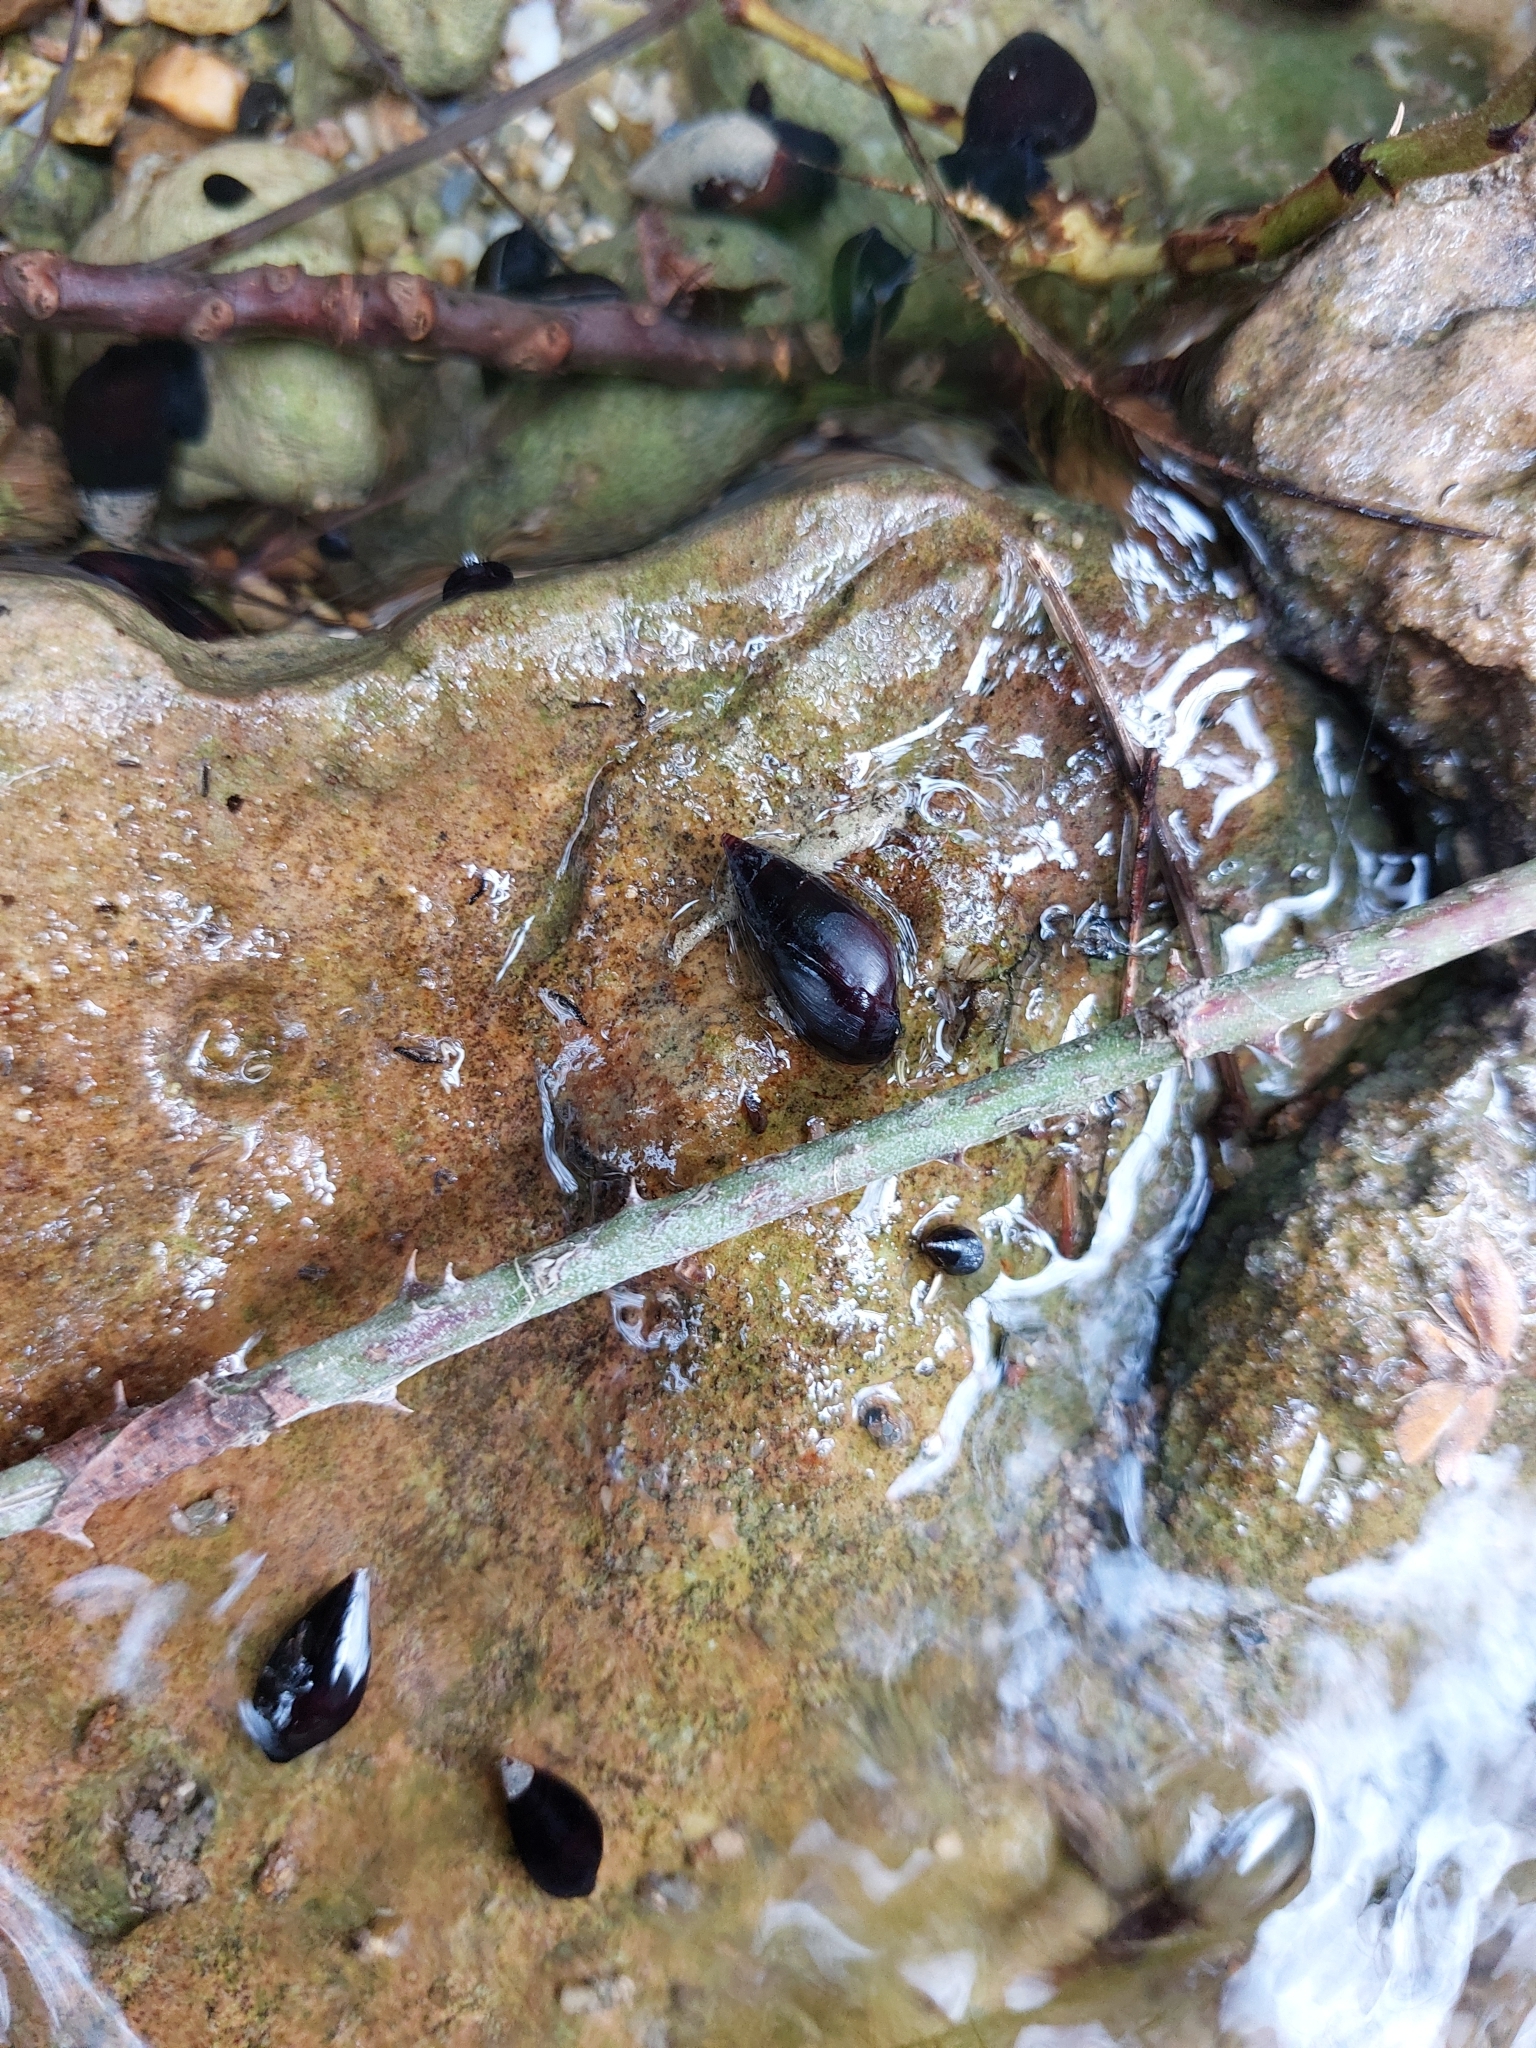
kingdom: Animalia
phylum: Mollusca
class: Gastropoda
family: Melanopsidae
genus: Melanopsis
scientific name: Melanopsis buccinoidea
